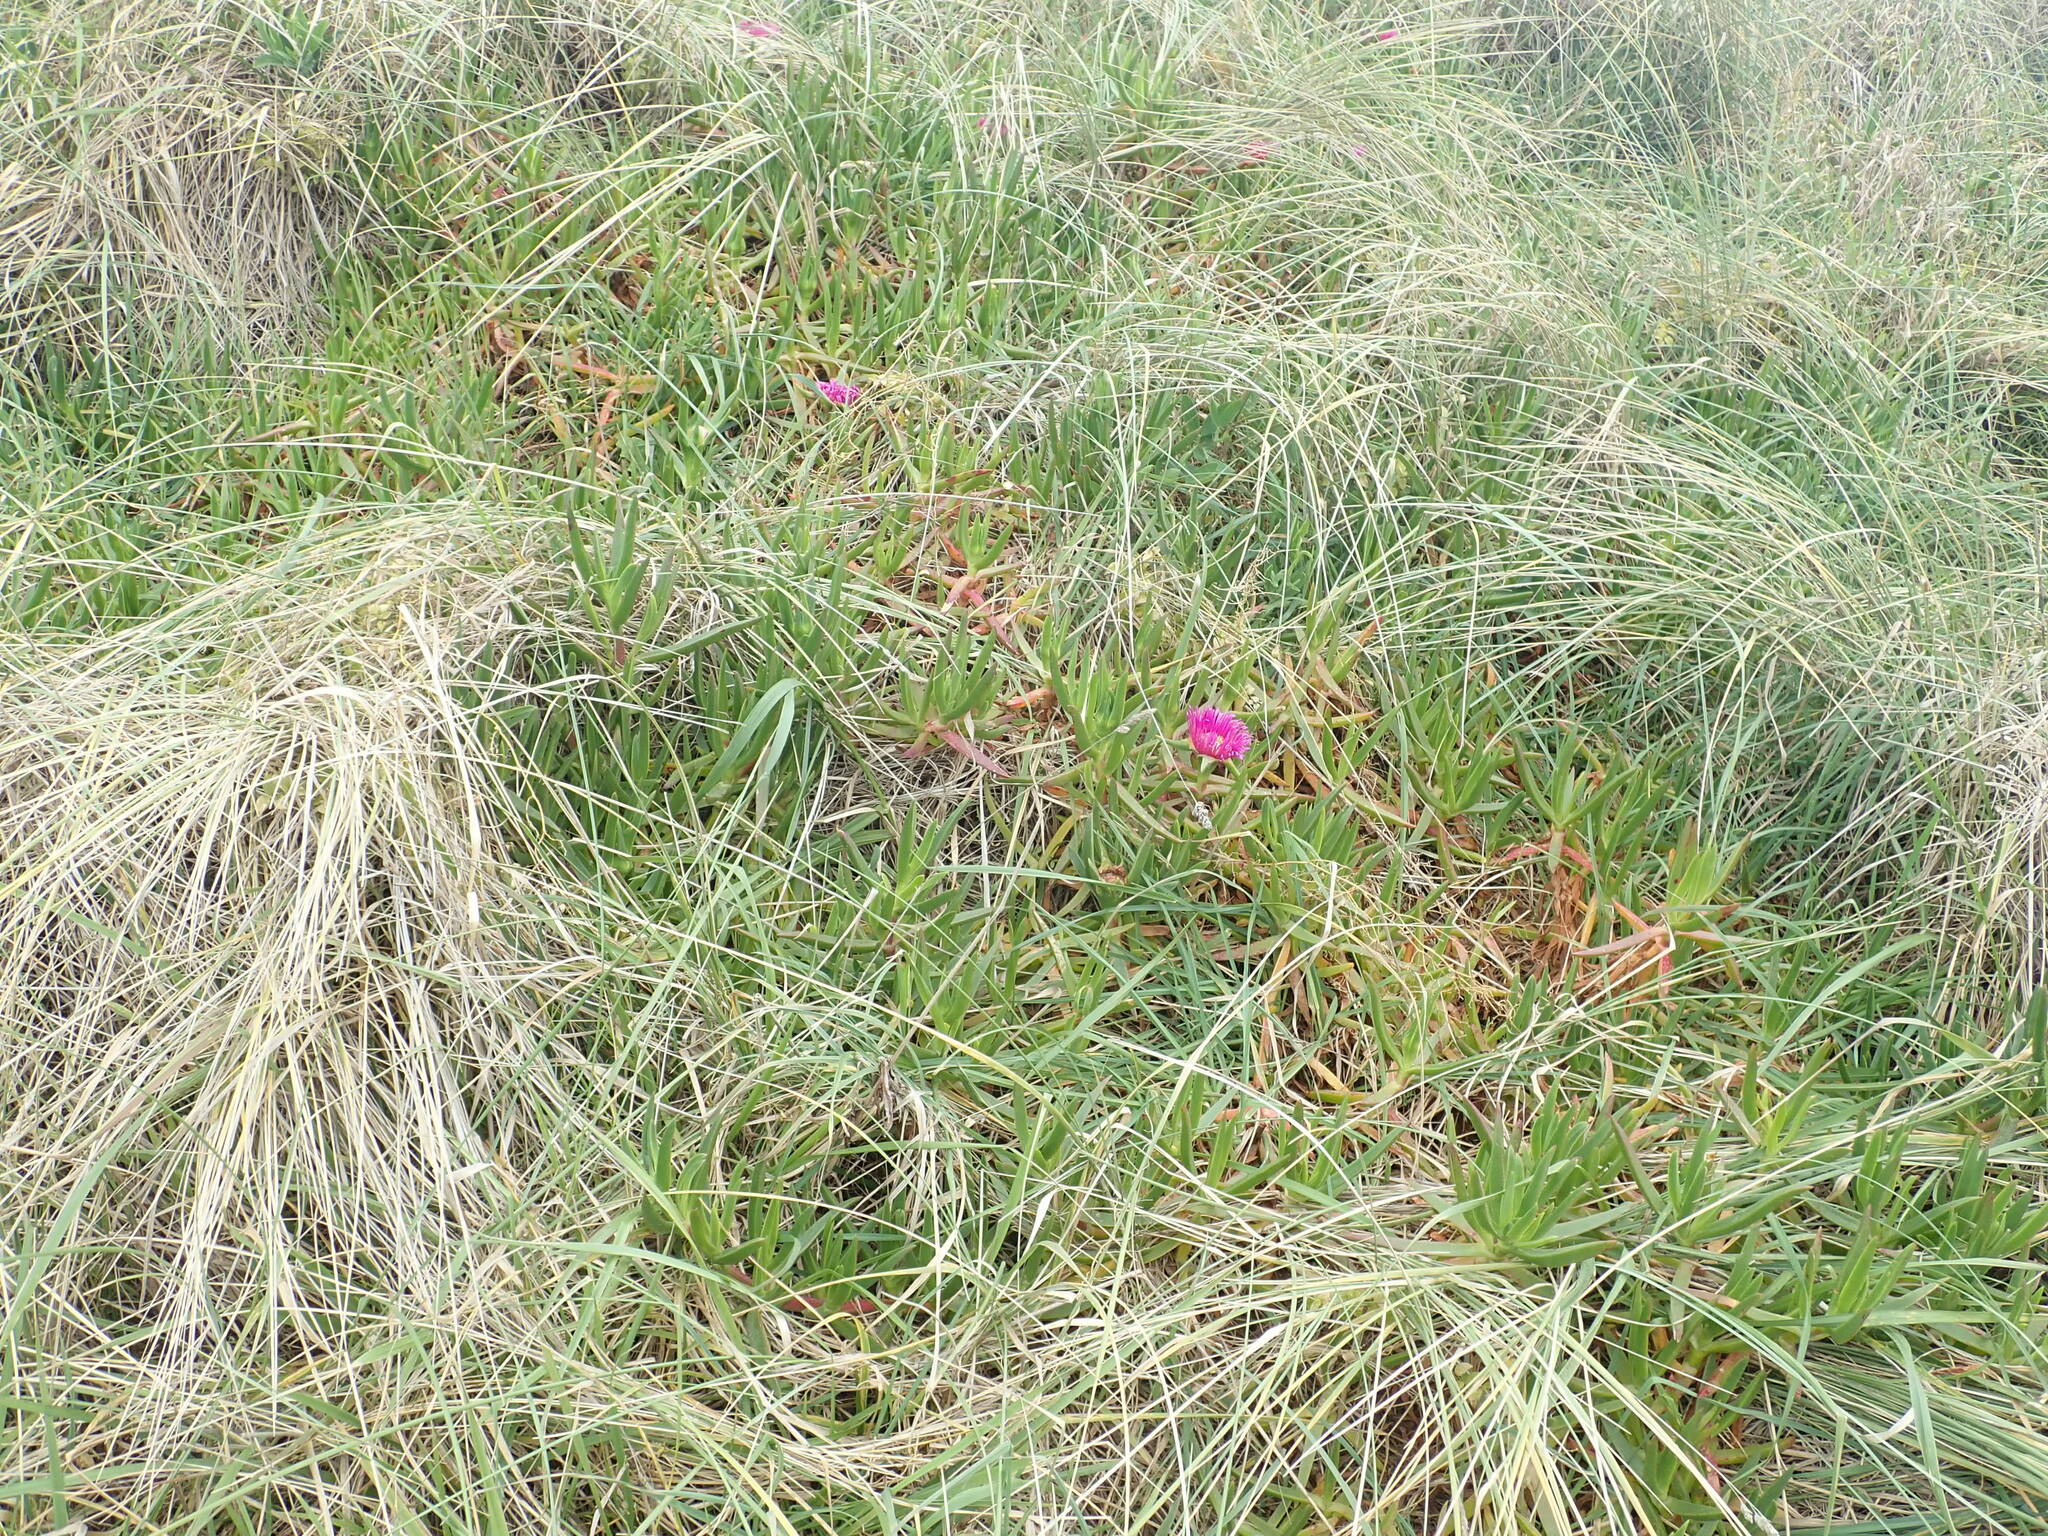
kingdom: Plantae
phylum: Tracheophyta
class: Magnoliopsida
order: Caryophyllales
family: Aizoaceae
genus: Carpobrotus
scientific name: Carpobrotus chilensis
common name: Sea fig
